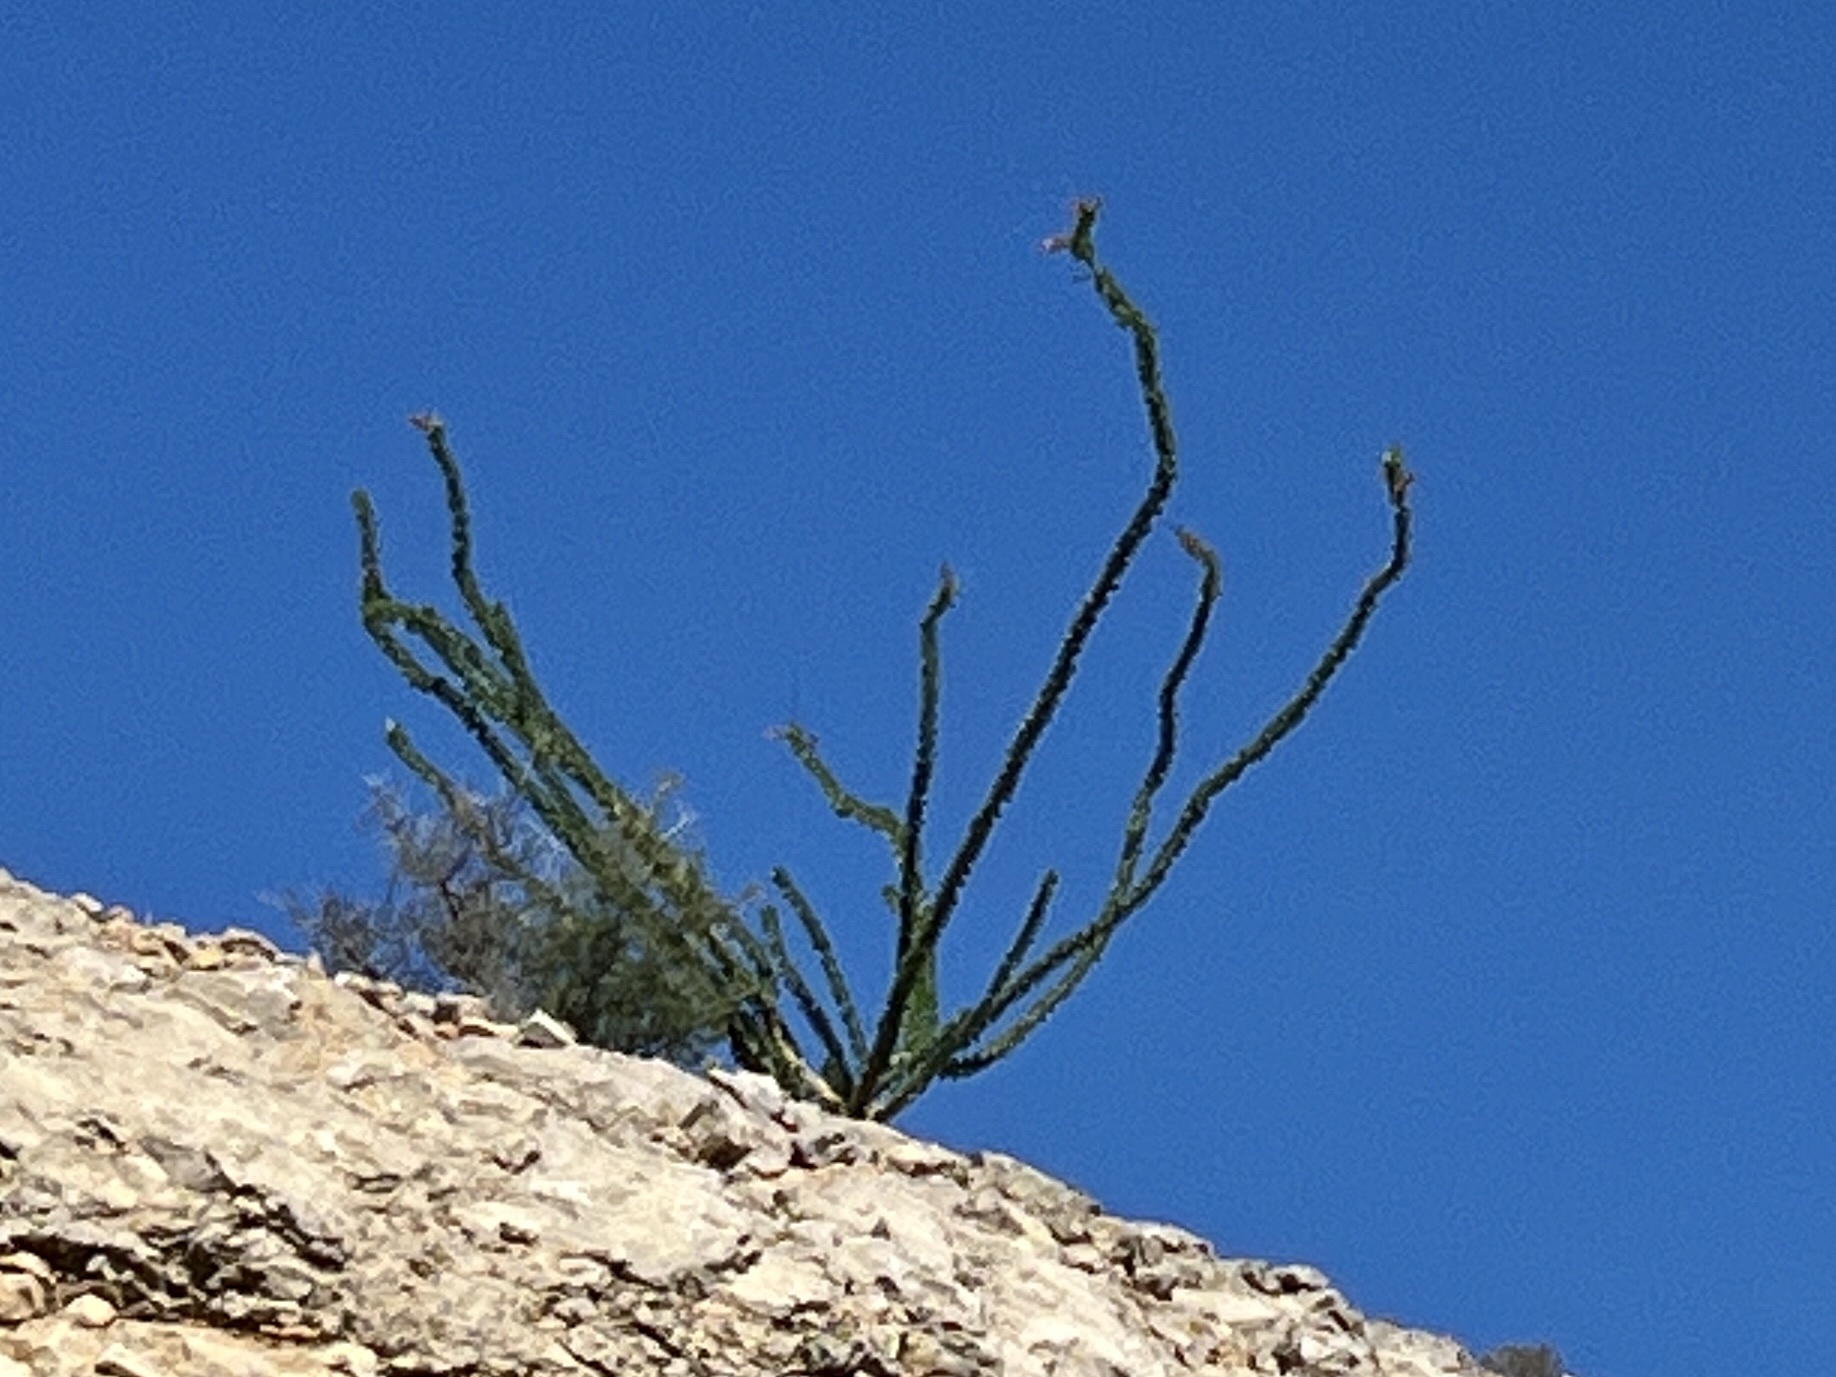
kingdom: Plantae
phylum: Tracheophyta
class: Magnoliopsida
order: Ericales
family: Fouquieriaceae
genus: Fouquieria
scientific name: Fouquieria splendens
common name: Vine-cactus
